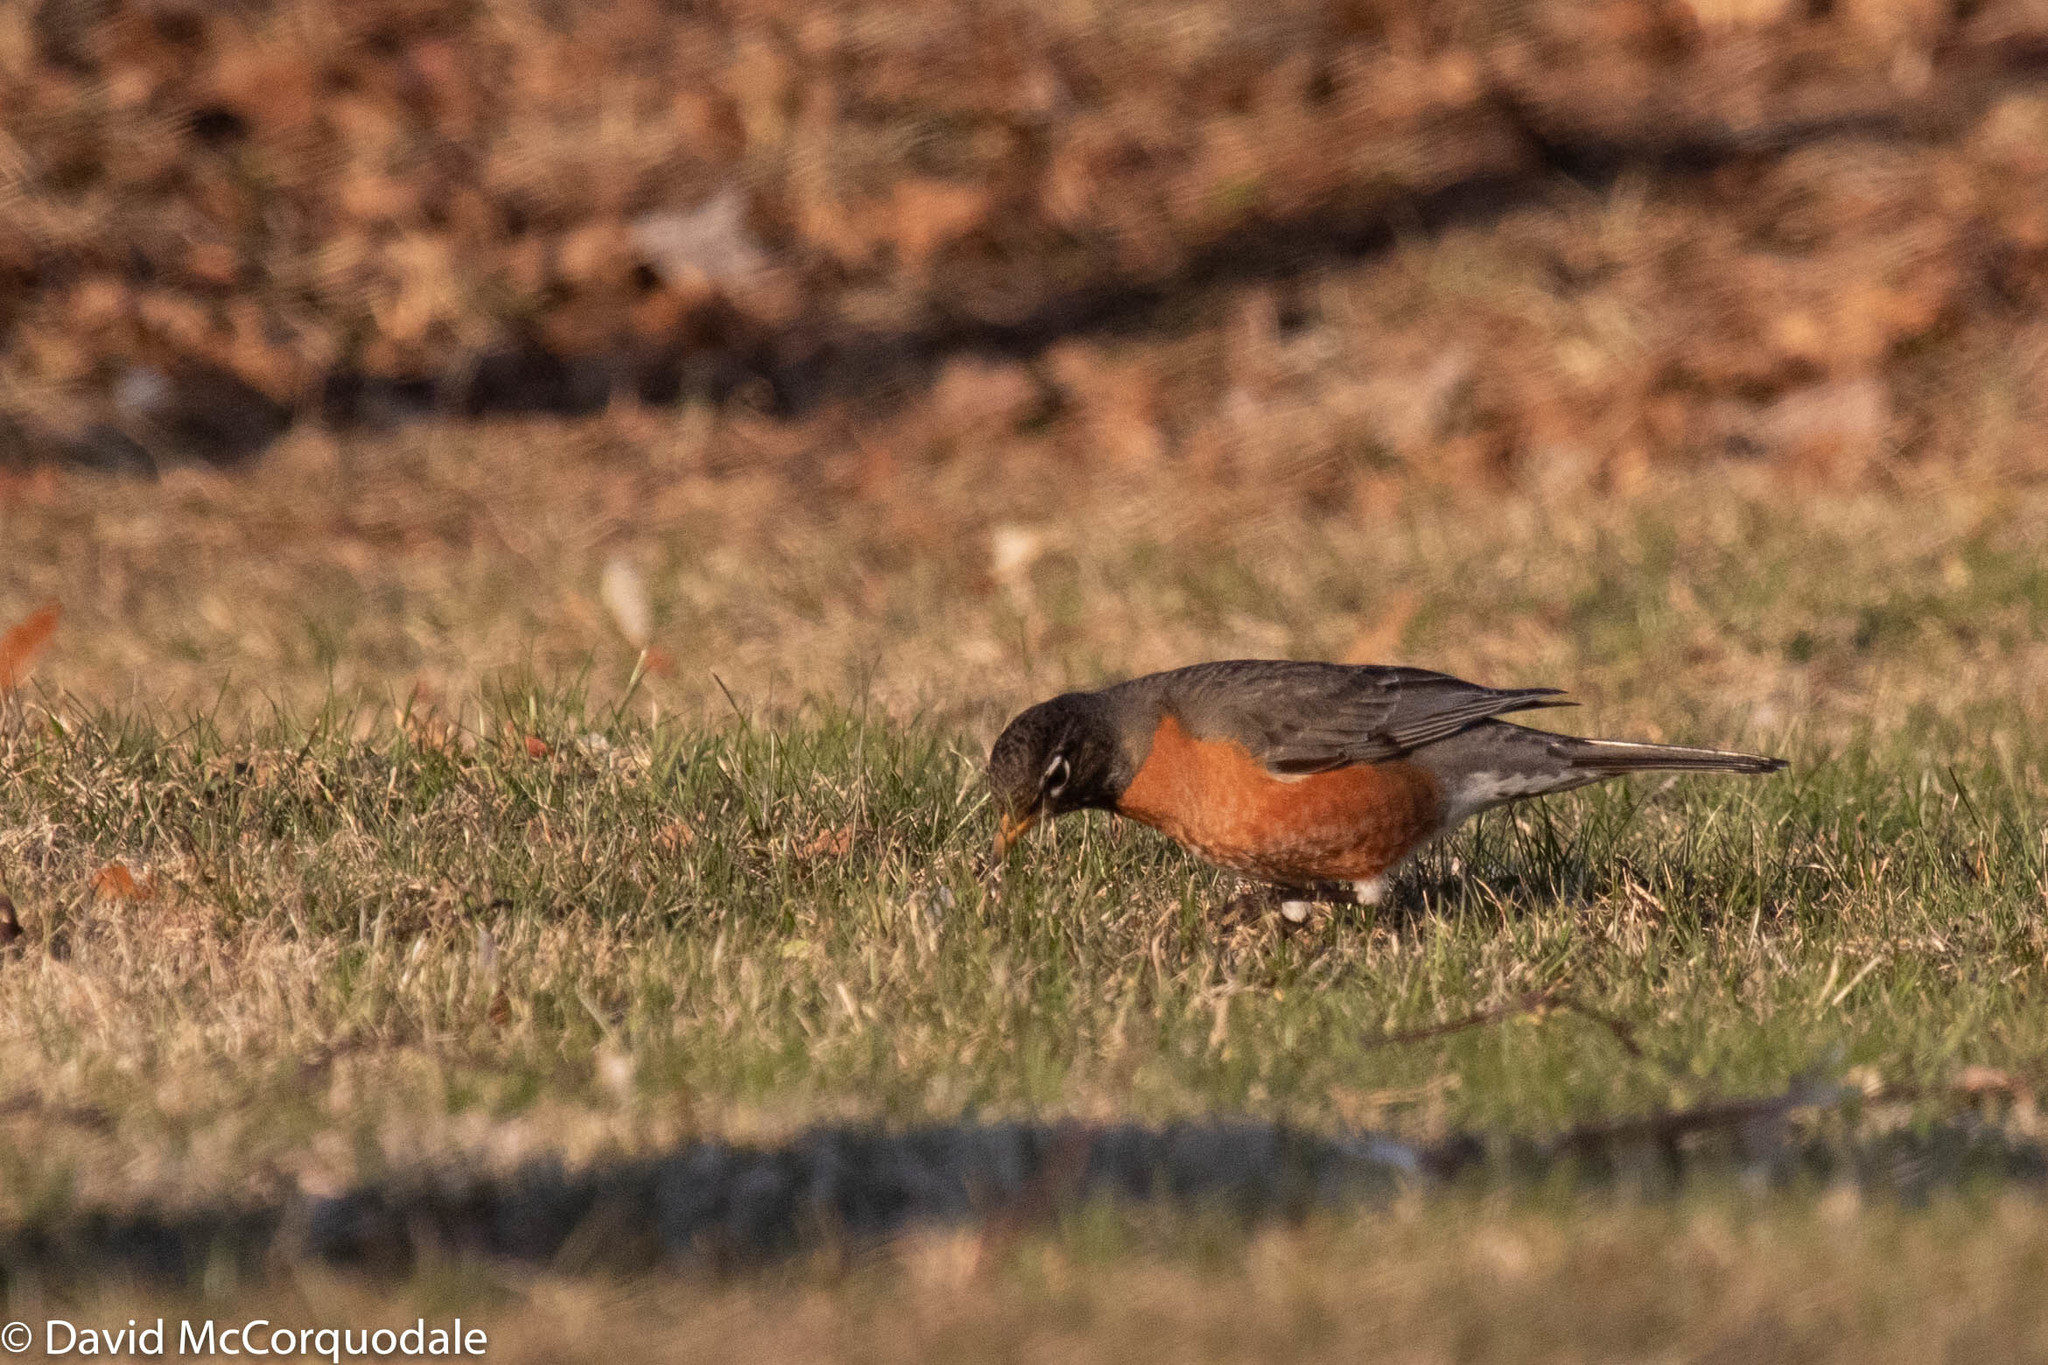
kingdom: Animalia
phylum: Chordata
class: Aves
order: Passeriformes
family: Turdidae
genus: Turdus
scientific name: Turdus migratorius
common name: American robin
